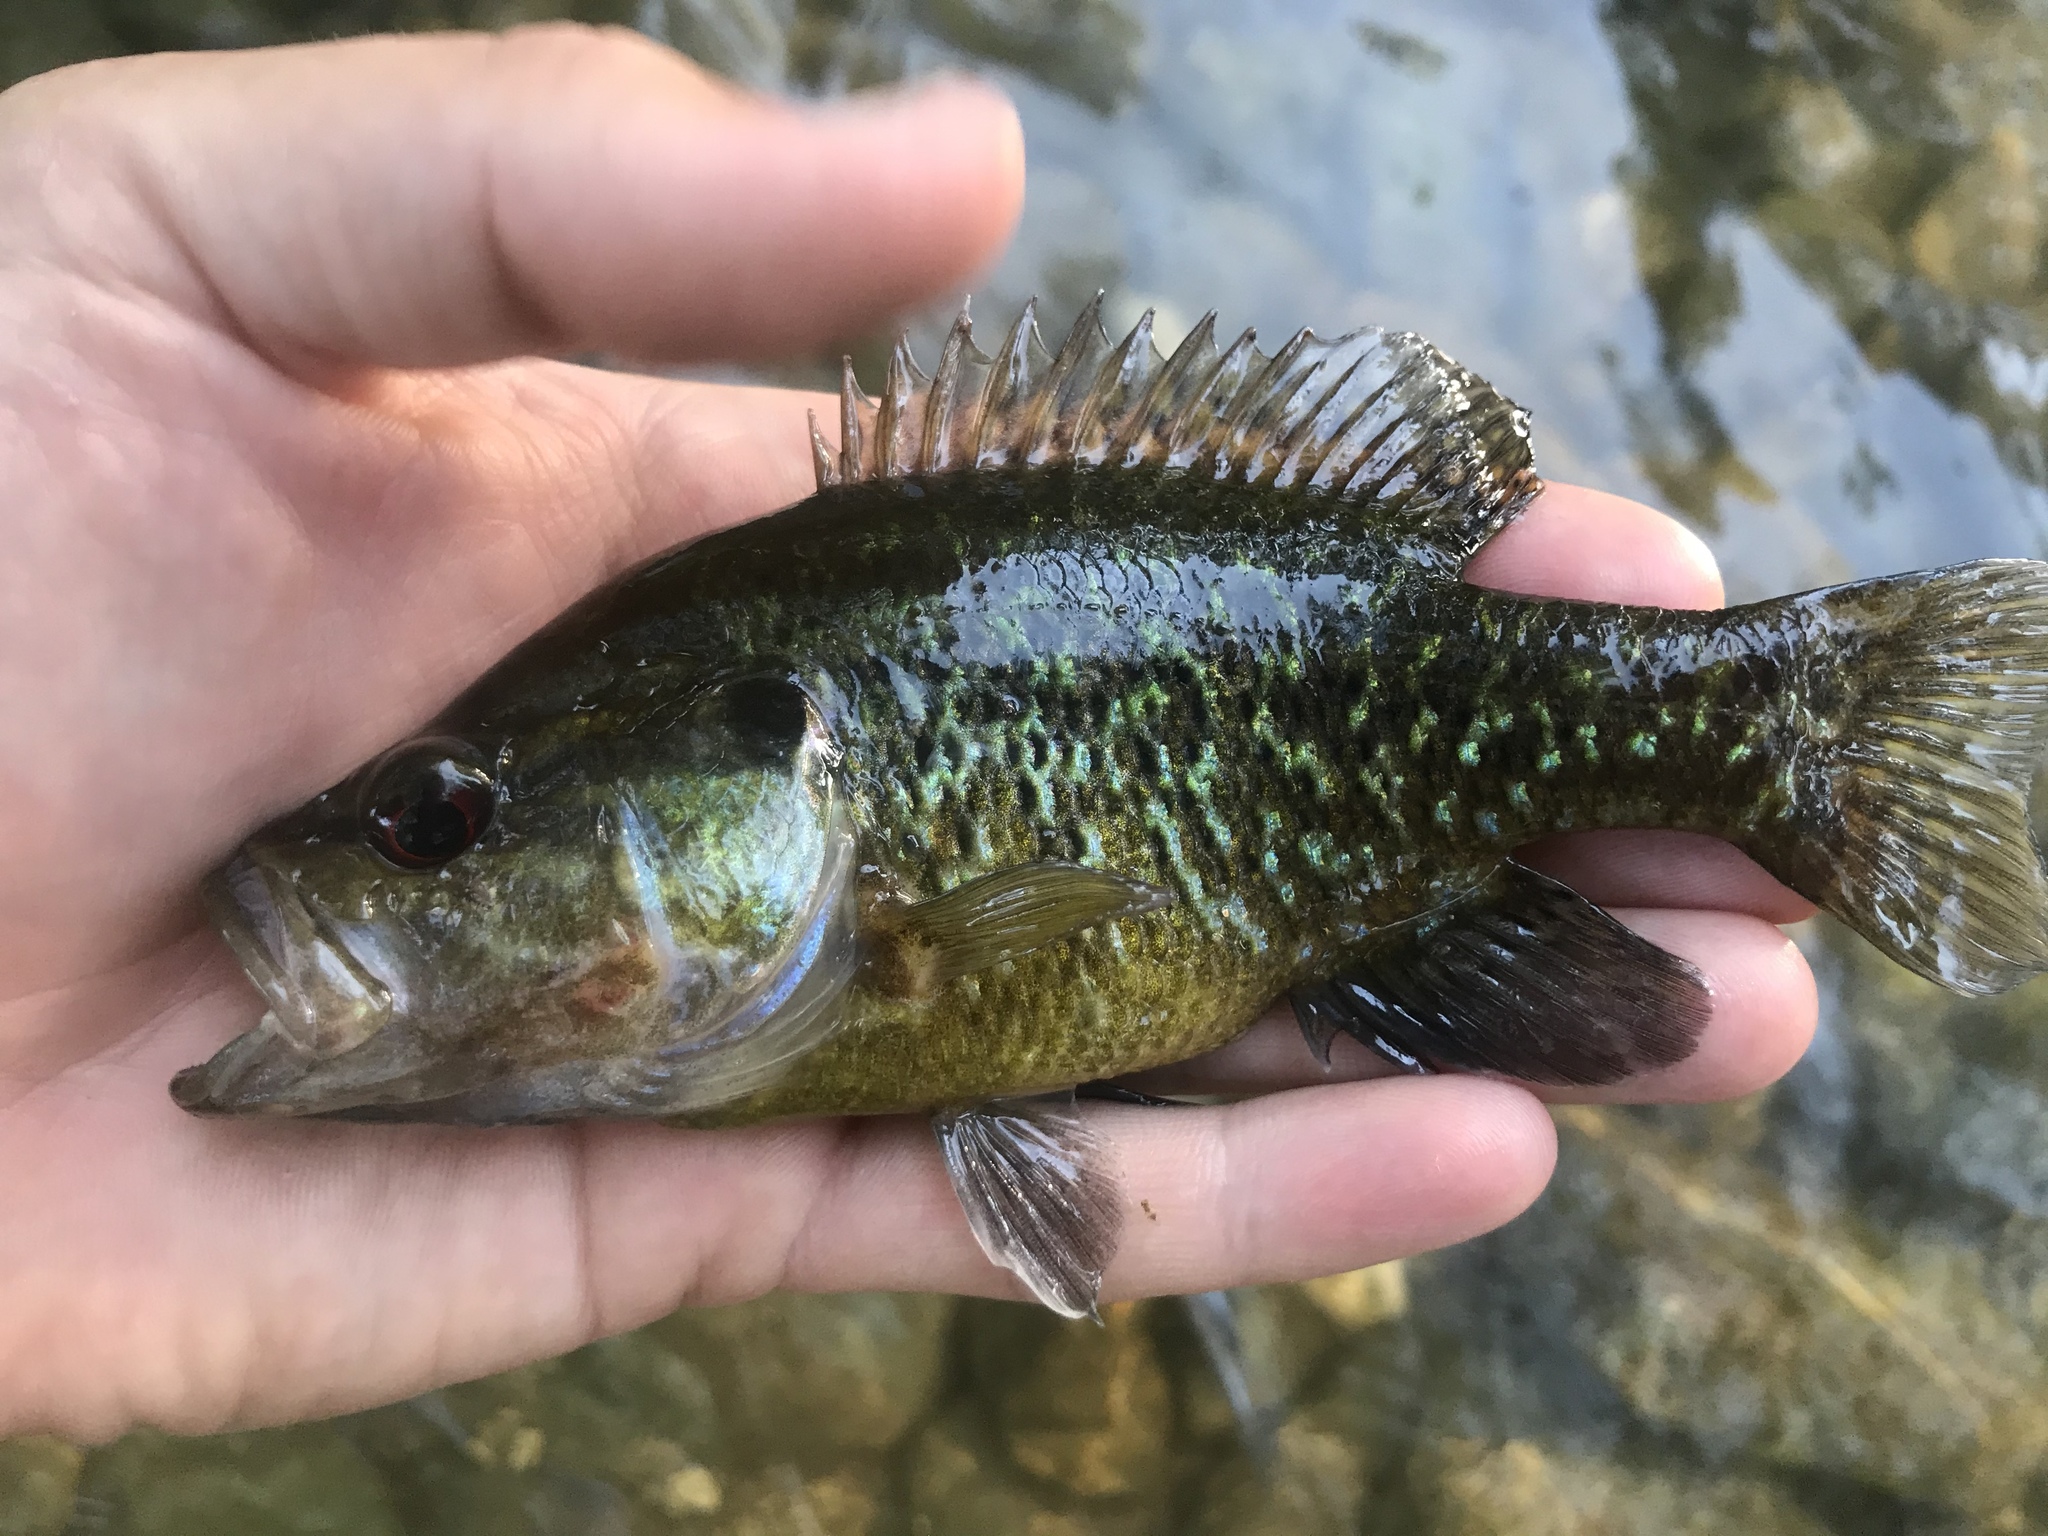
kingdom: Animalia
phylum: Chordata
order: Perciformes
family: Centrarchidae
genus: Lepomis
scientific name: Lepomis gulosus
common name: Warmouth
